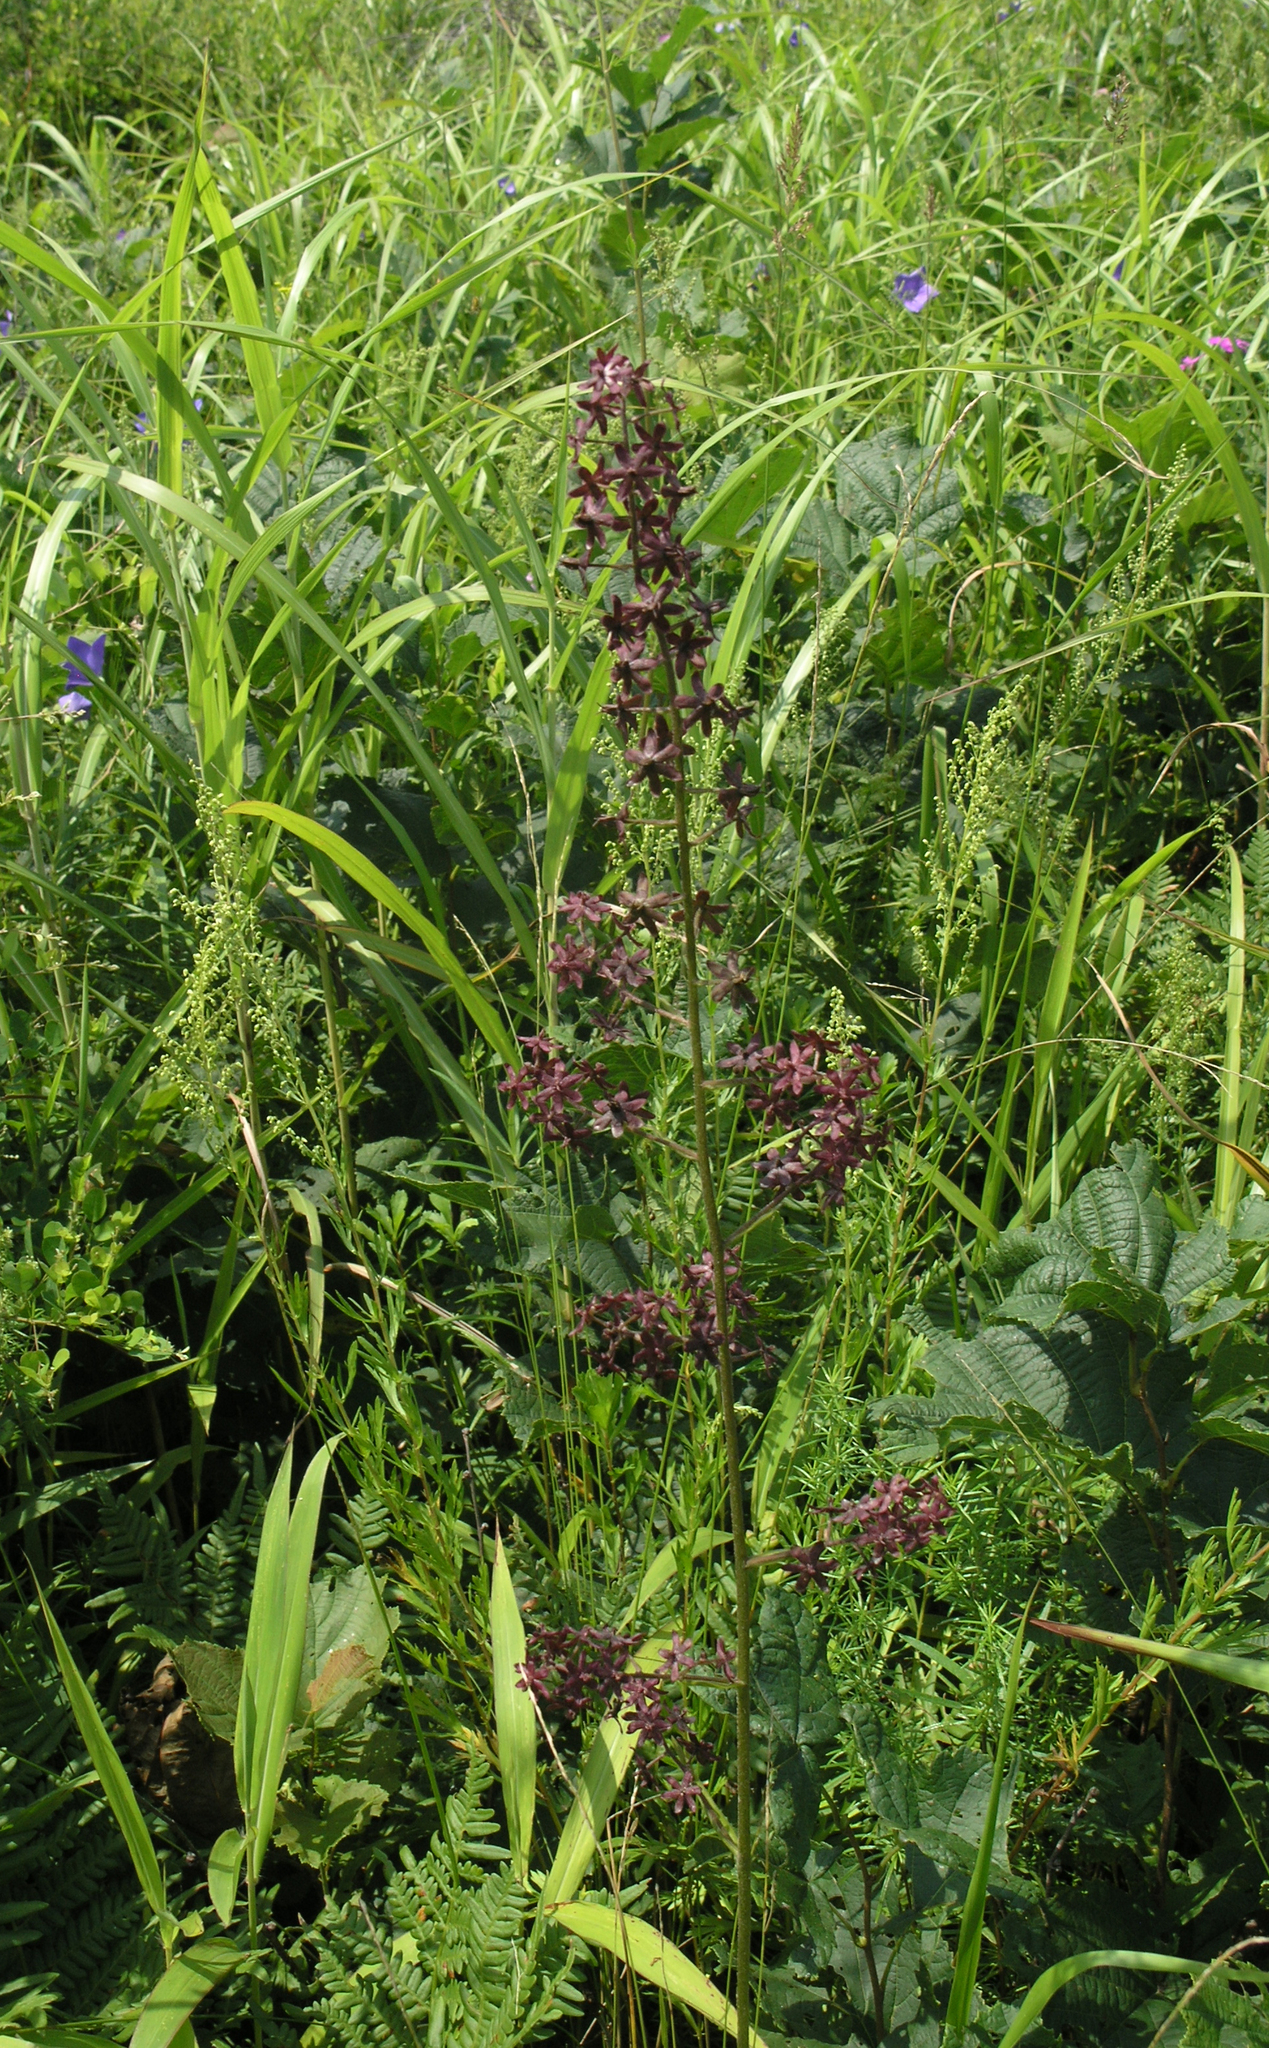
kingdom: Plantae
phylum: Tracheophyta
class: Liliopsida
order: Liliales
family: Melanthiaceae
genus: Veratrum
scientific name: Veratrum maackii
